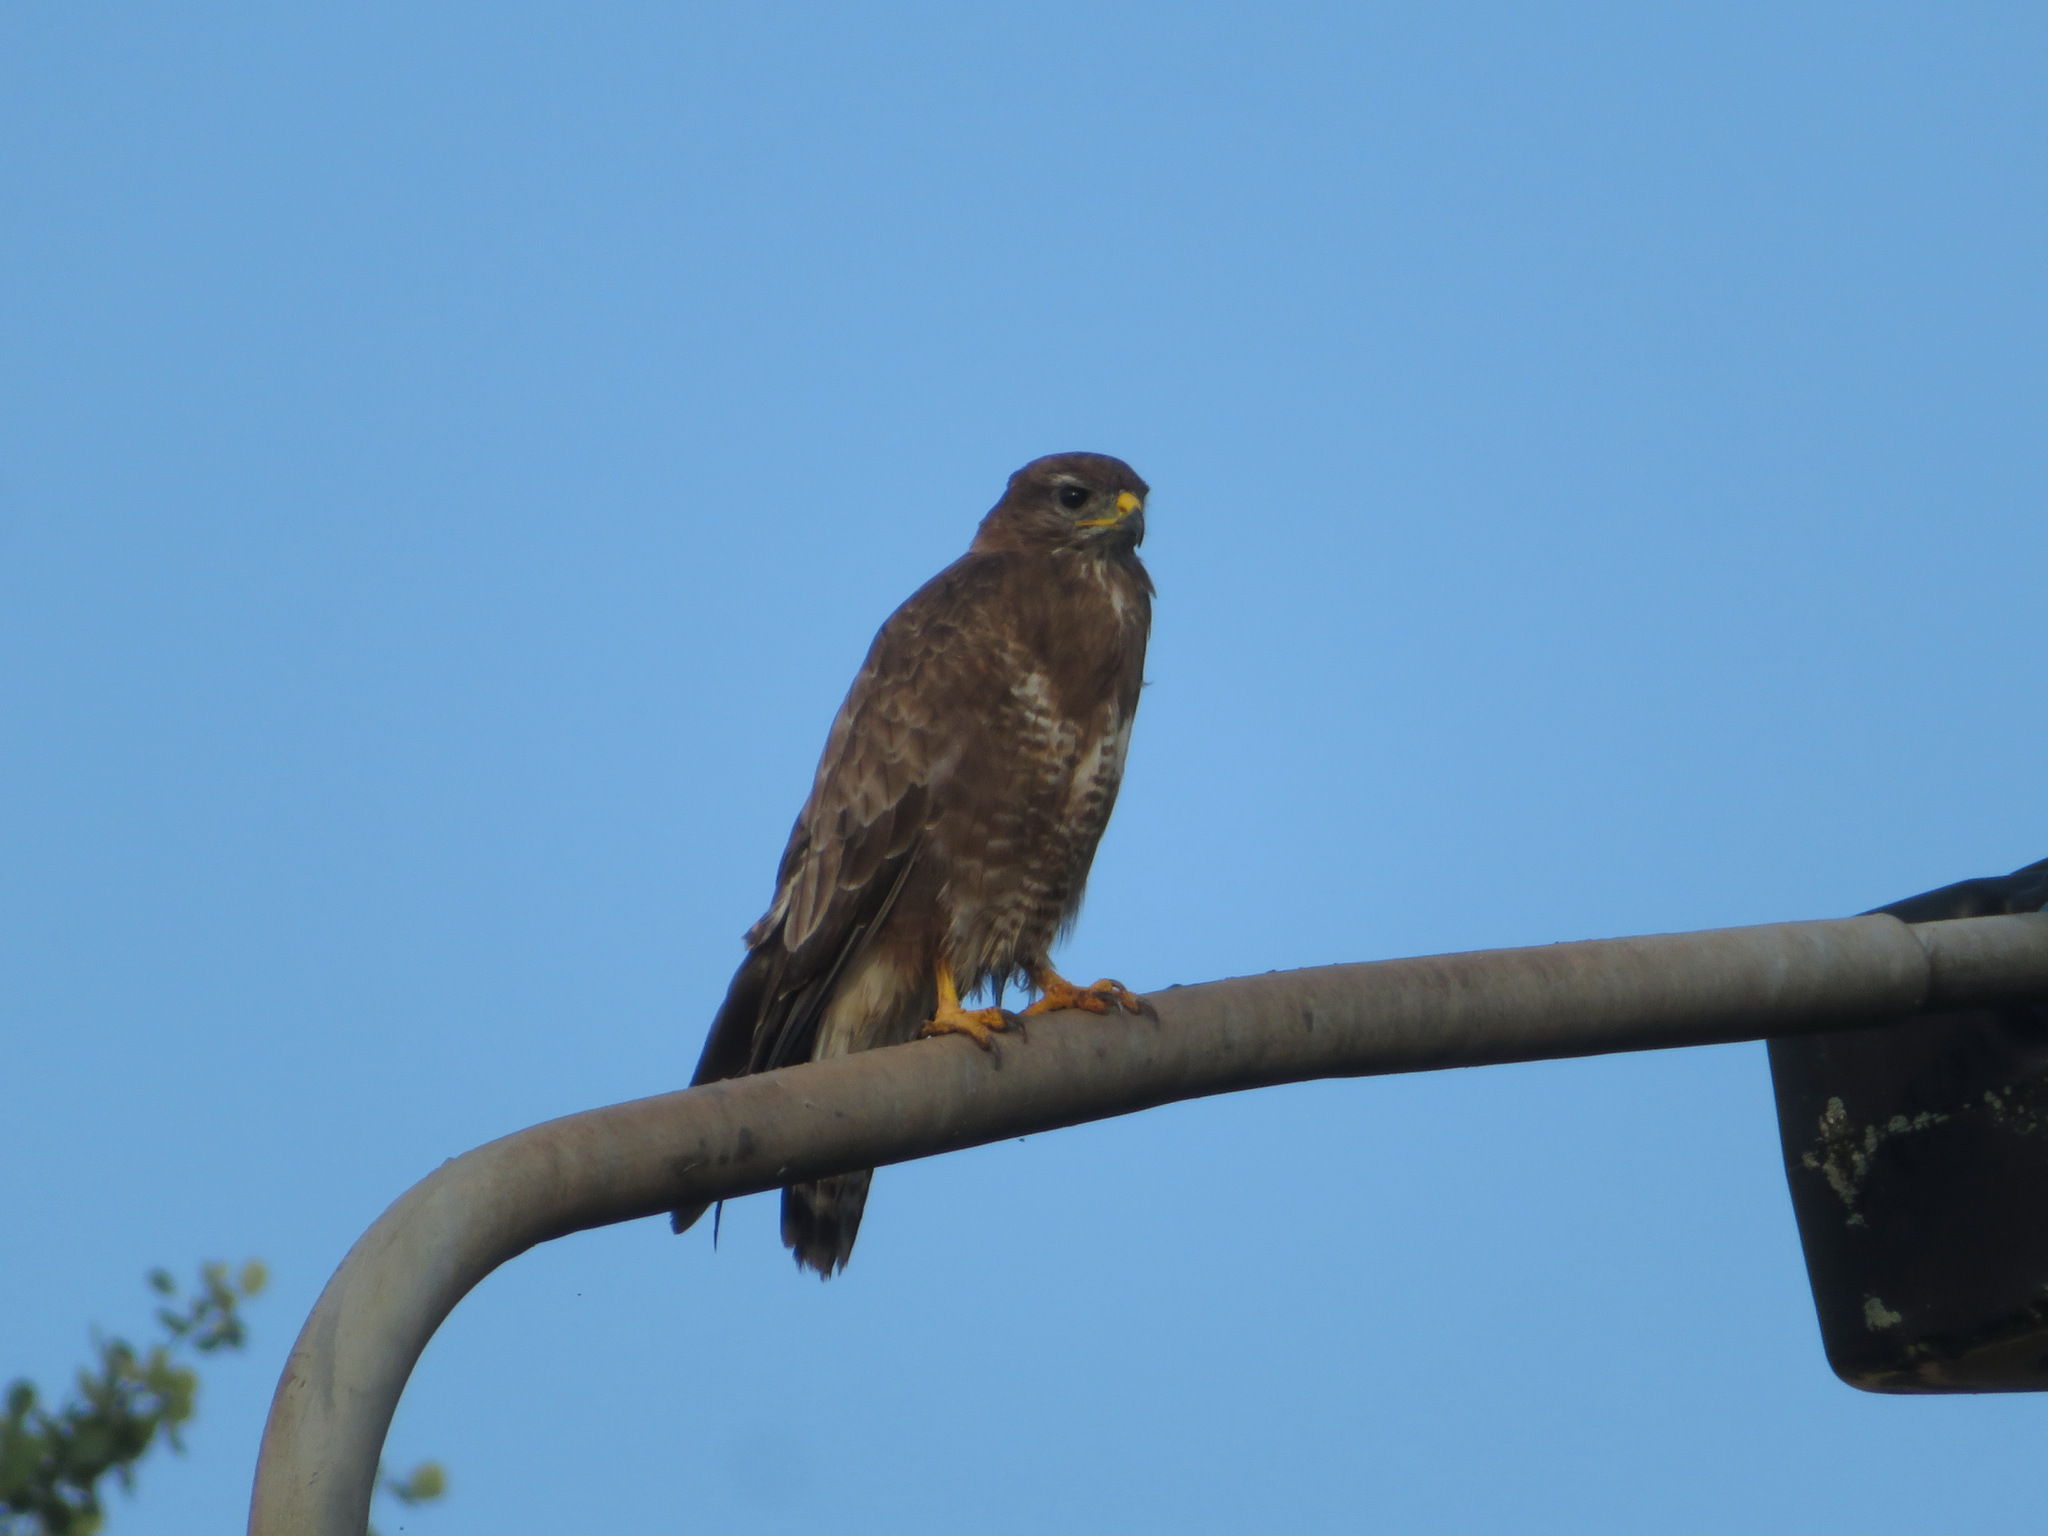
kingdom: Animalia
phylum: Chordata
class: Aves
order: Accipitriformes
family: Accipitridae
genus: Buteo
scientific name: Buteo buteo
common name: Common buzzard
